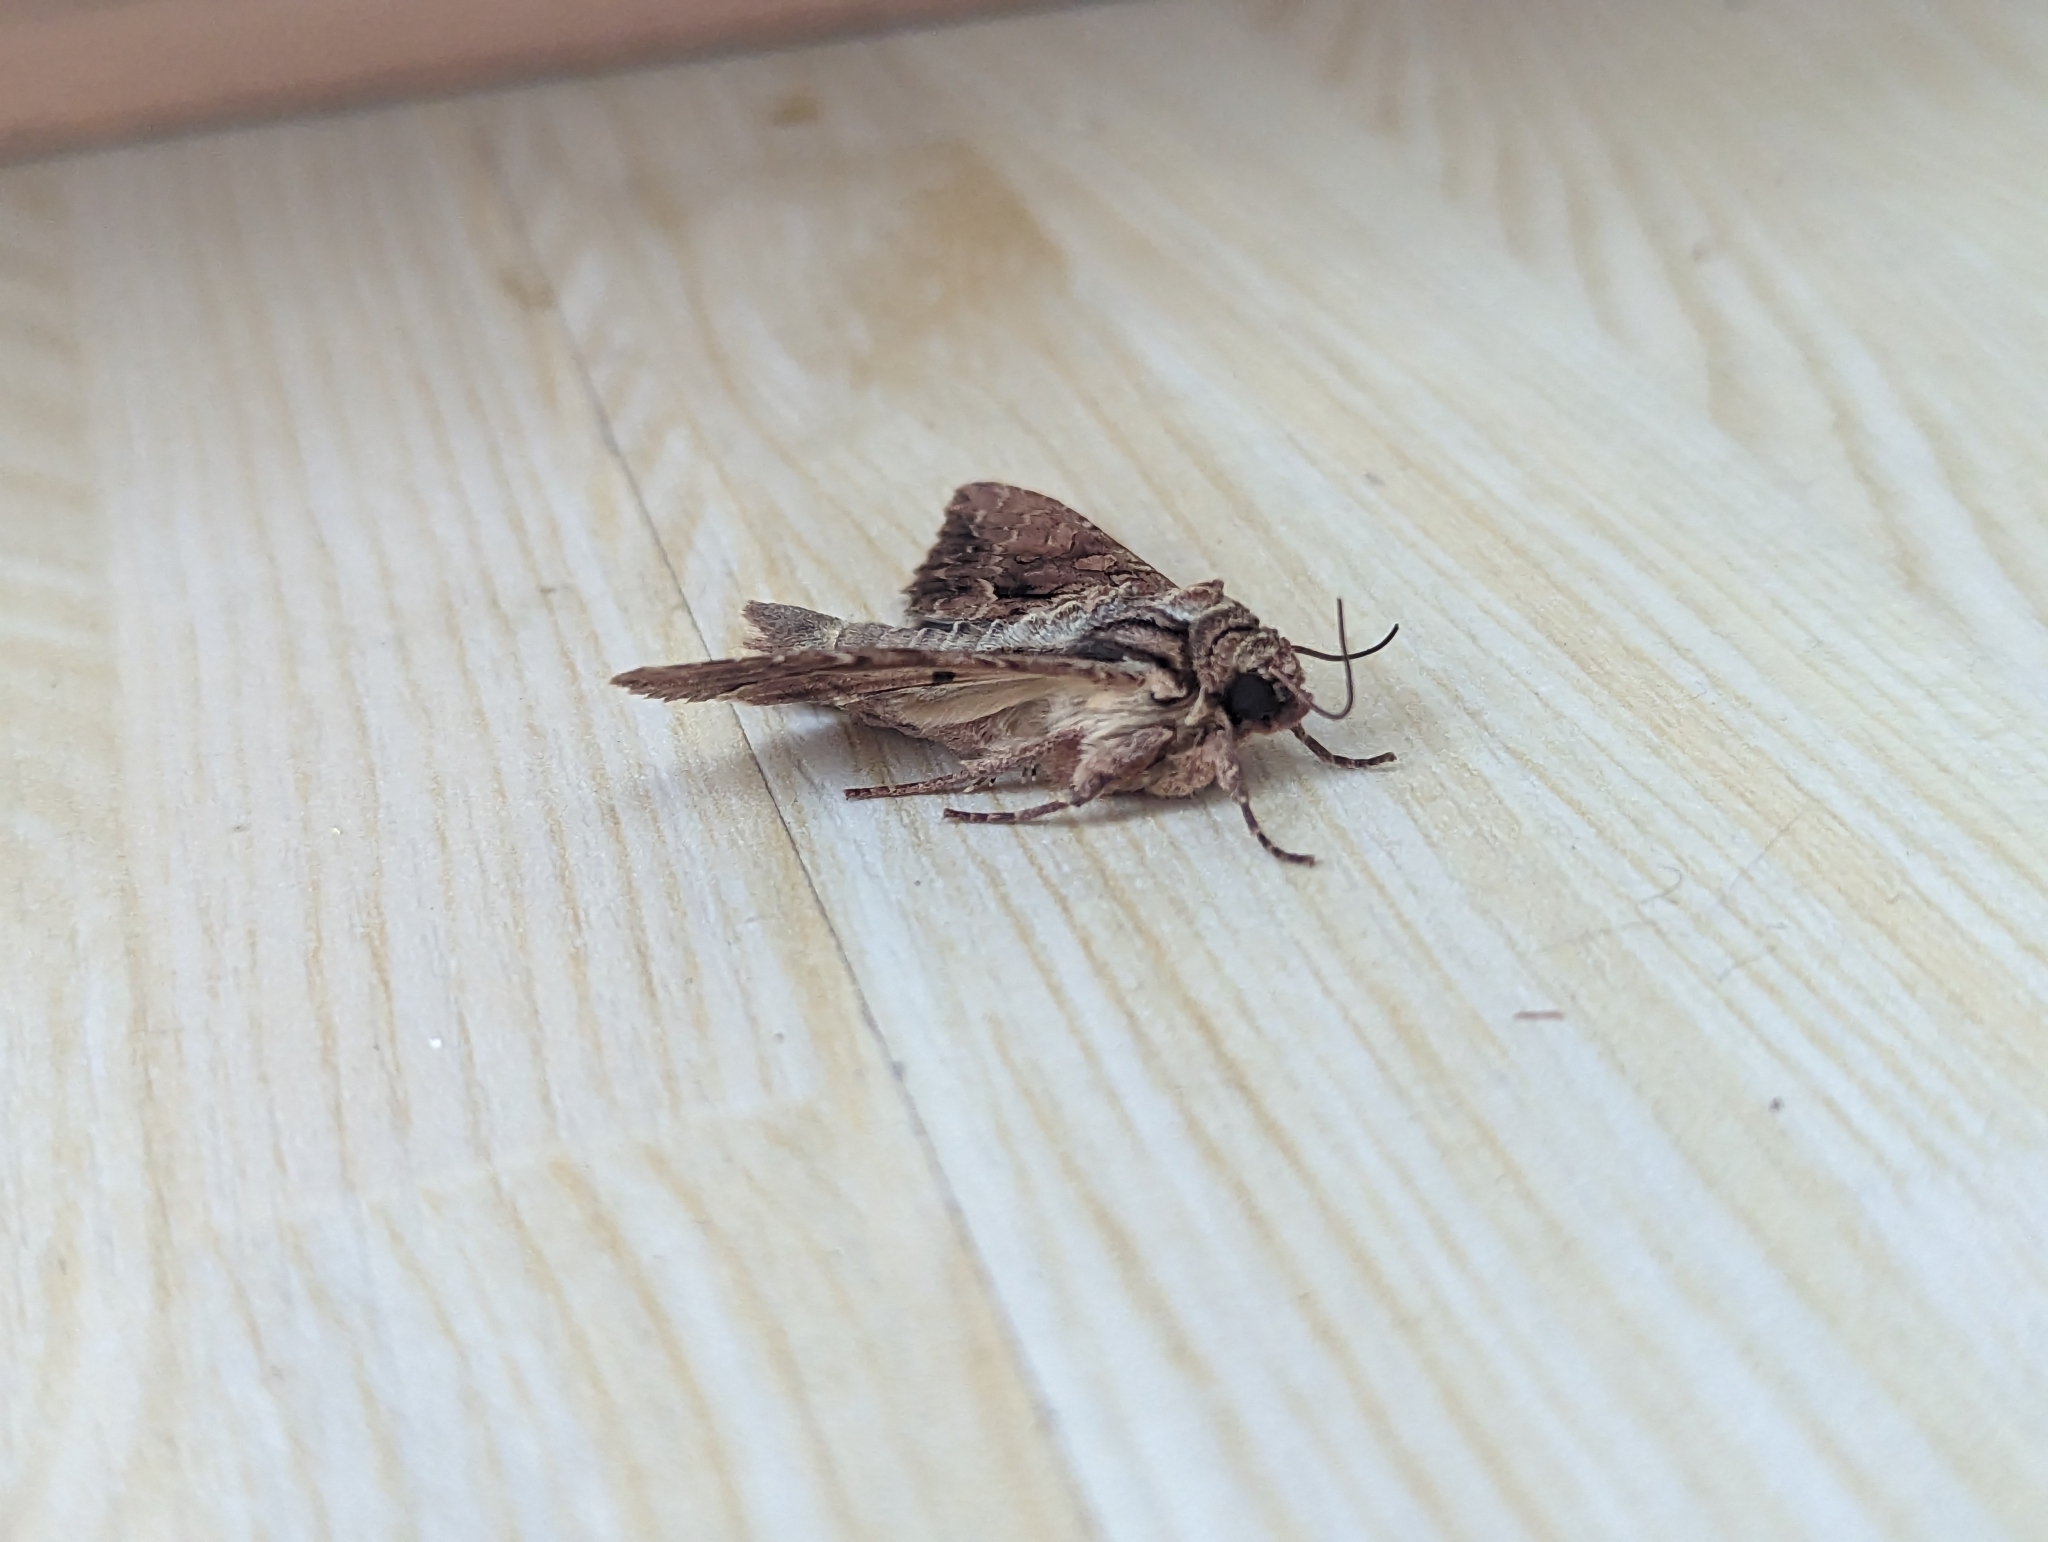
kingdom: Animalia
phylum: Arthropoda
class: Insecta
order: Lepidoptera
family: Noctuidae
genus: Apamea
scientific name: Apamea monoglypha
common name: Dark arches
